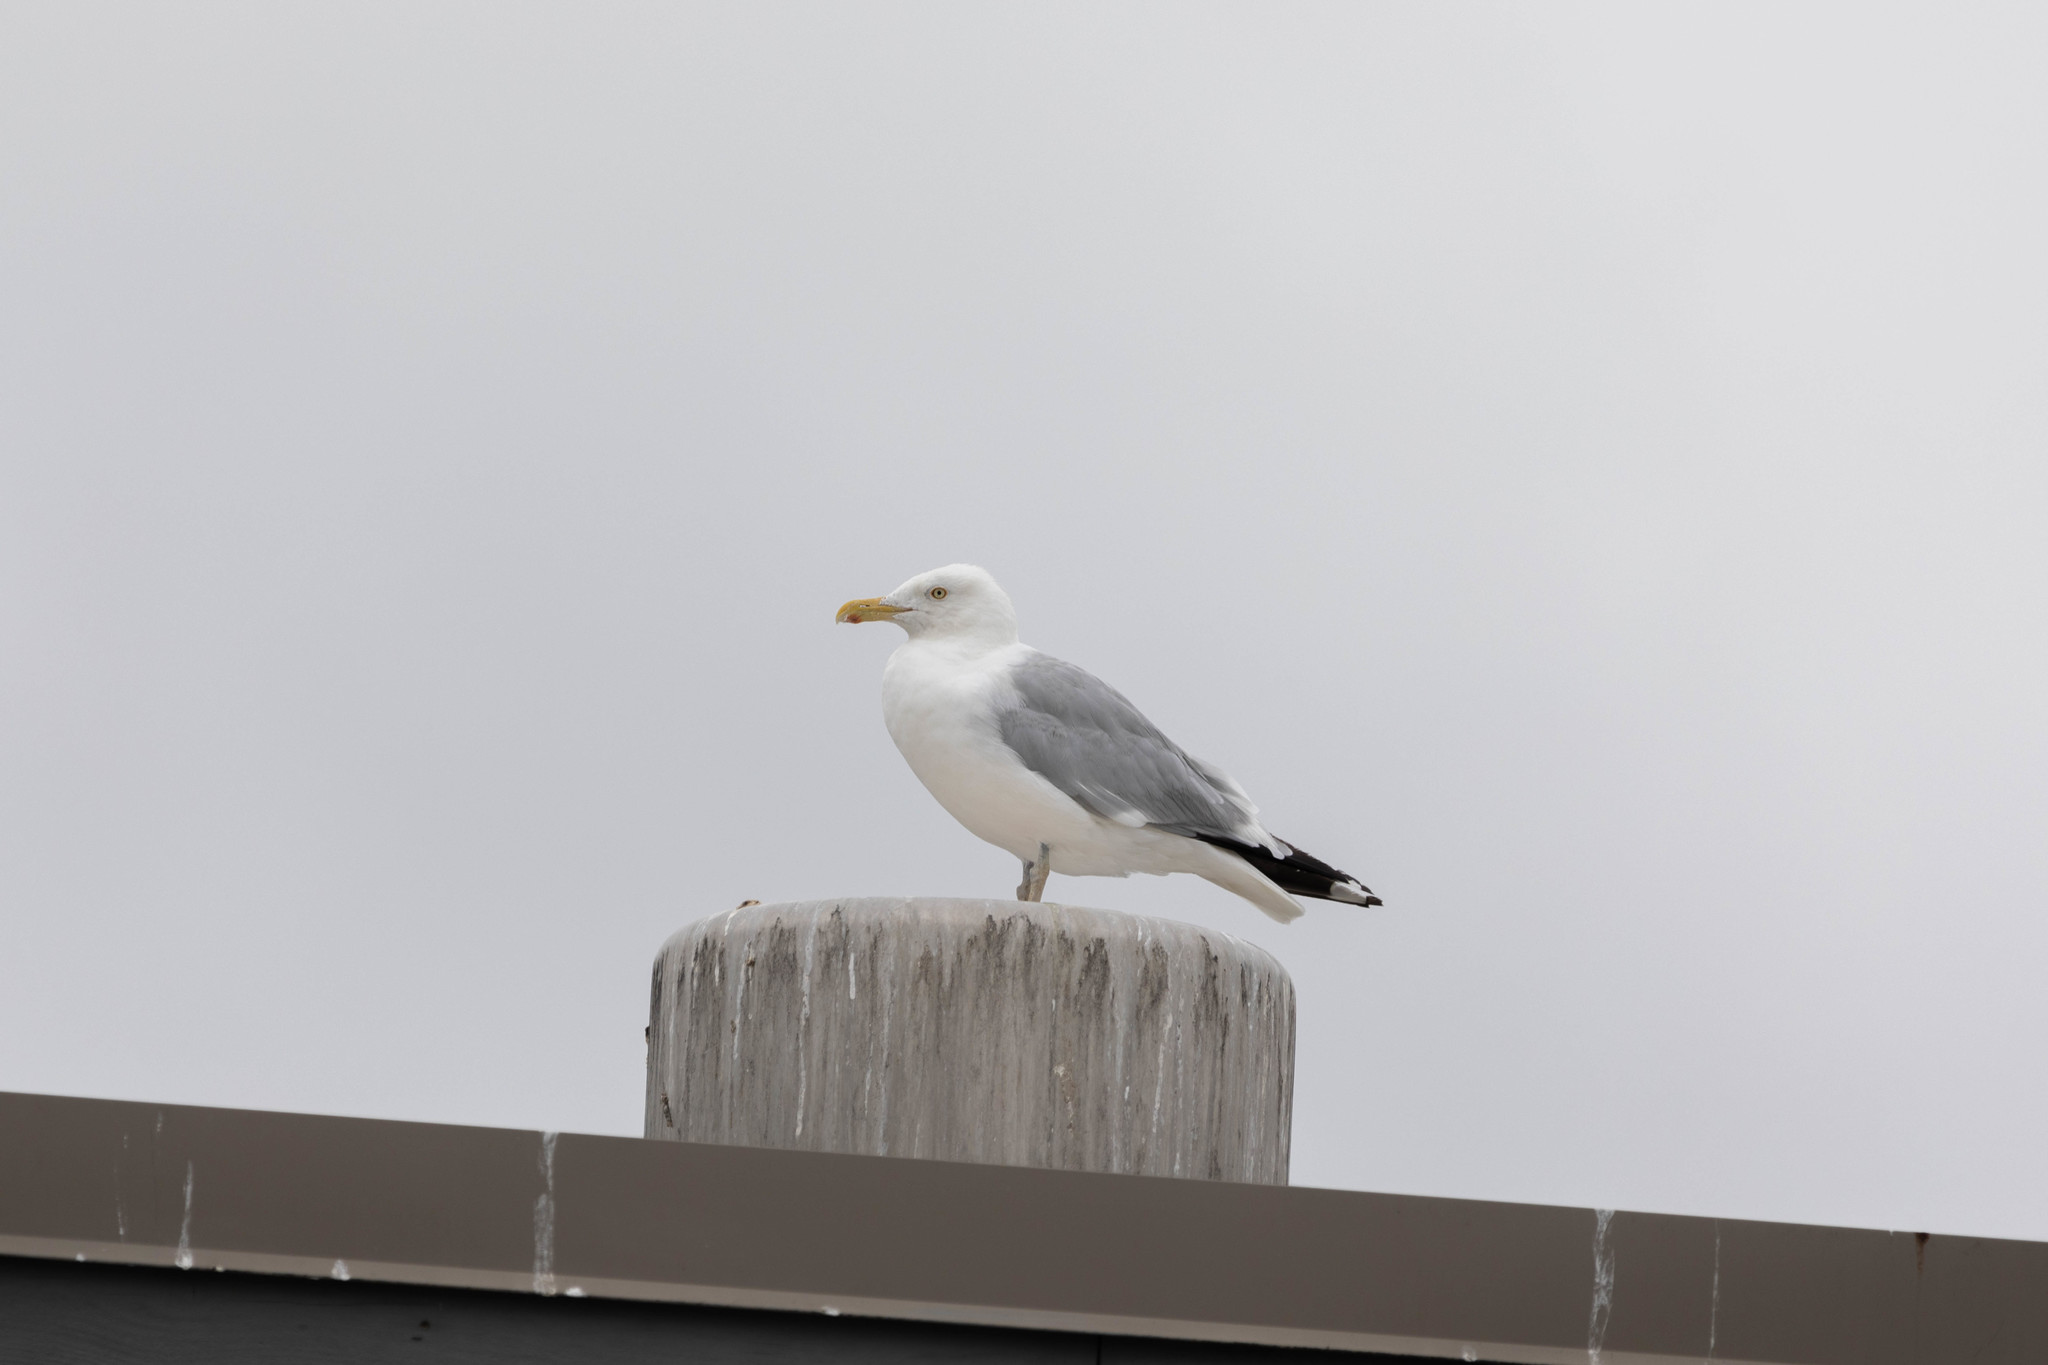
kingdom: Animalia
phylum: Chordata
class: Aves
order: Charadriiformes
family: Laridae
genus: Larus
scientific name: Larus argentatus
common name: Herring gull
